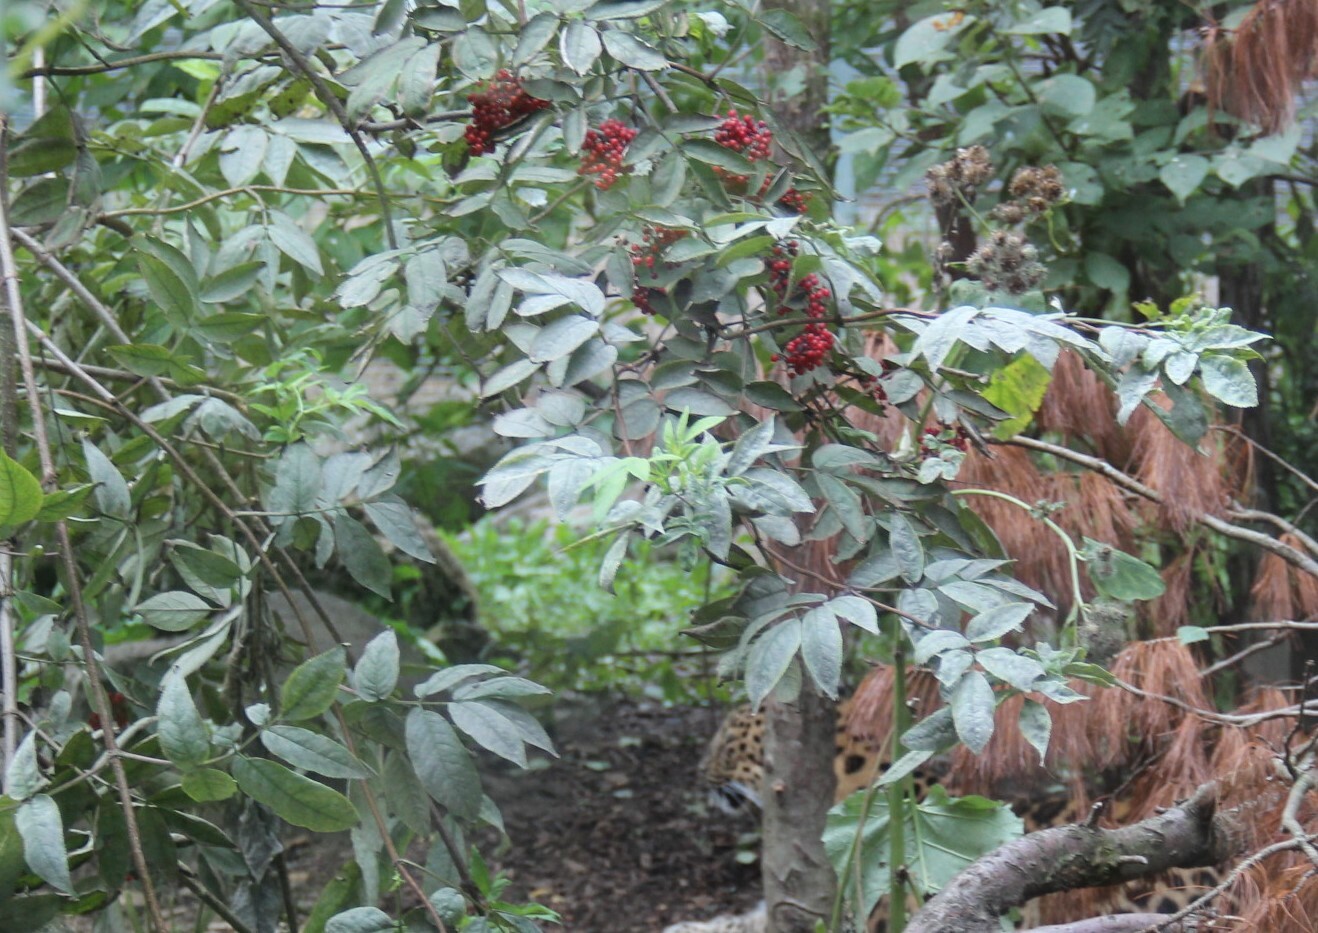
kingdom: Plantae
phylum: Tracheophyta
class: Magnoliopsida
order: Dipsacales
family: Viburnaceae
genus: Sambucus
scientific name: Sambucus racemosa
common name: Red-berried elder
